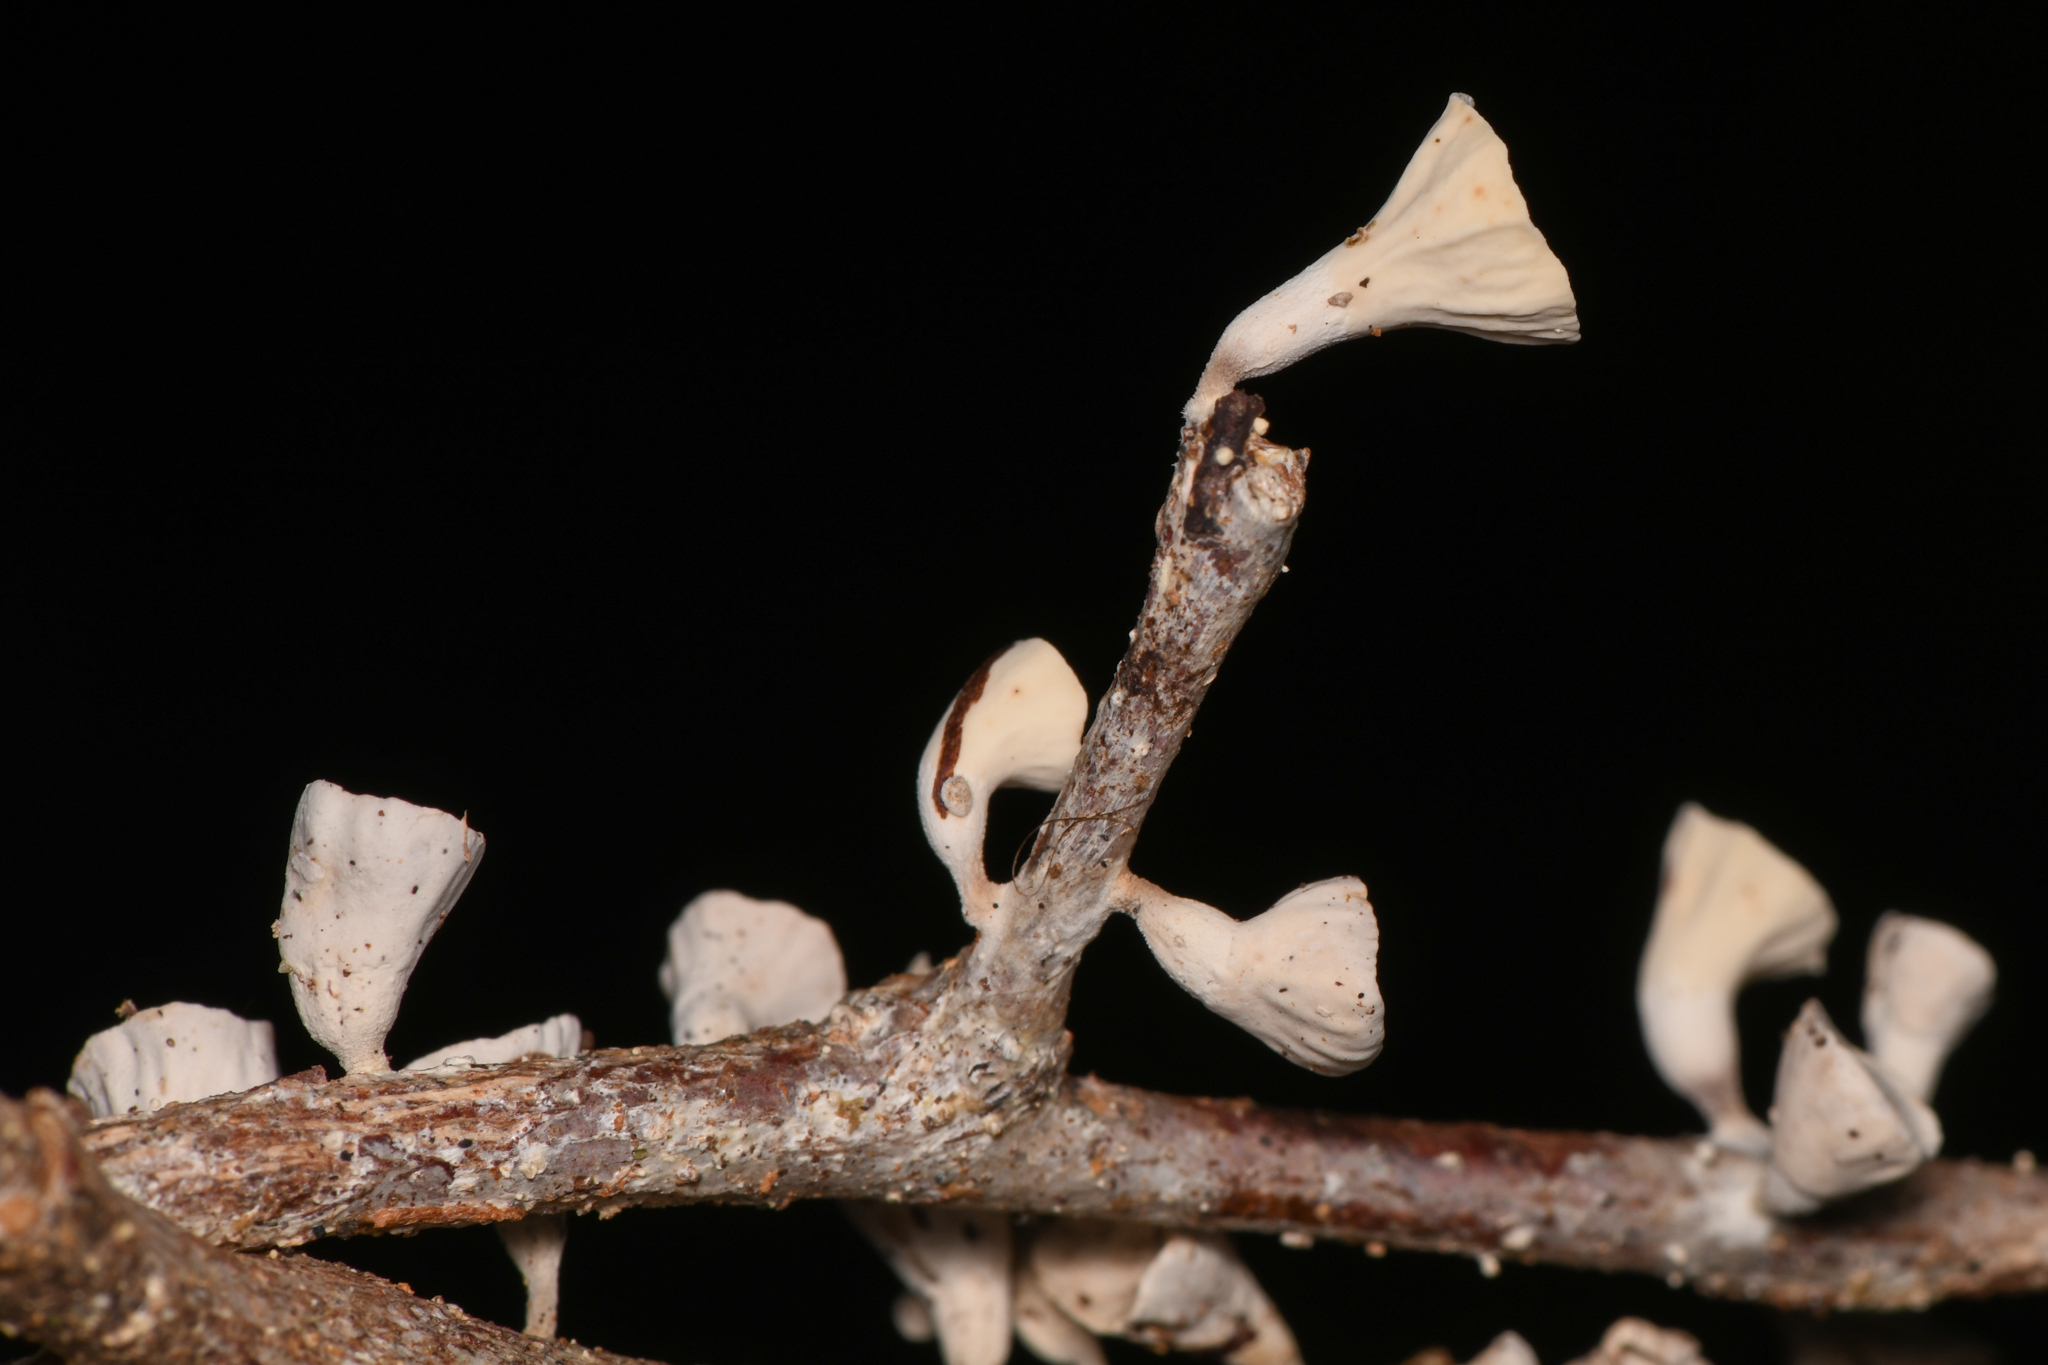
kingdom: Fungi
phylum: Basidiomycota
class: Agaricomycetes
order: Agaricales
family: Omphalotaceae
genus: Gymnopus
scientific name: Gymnopus montagnei
